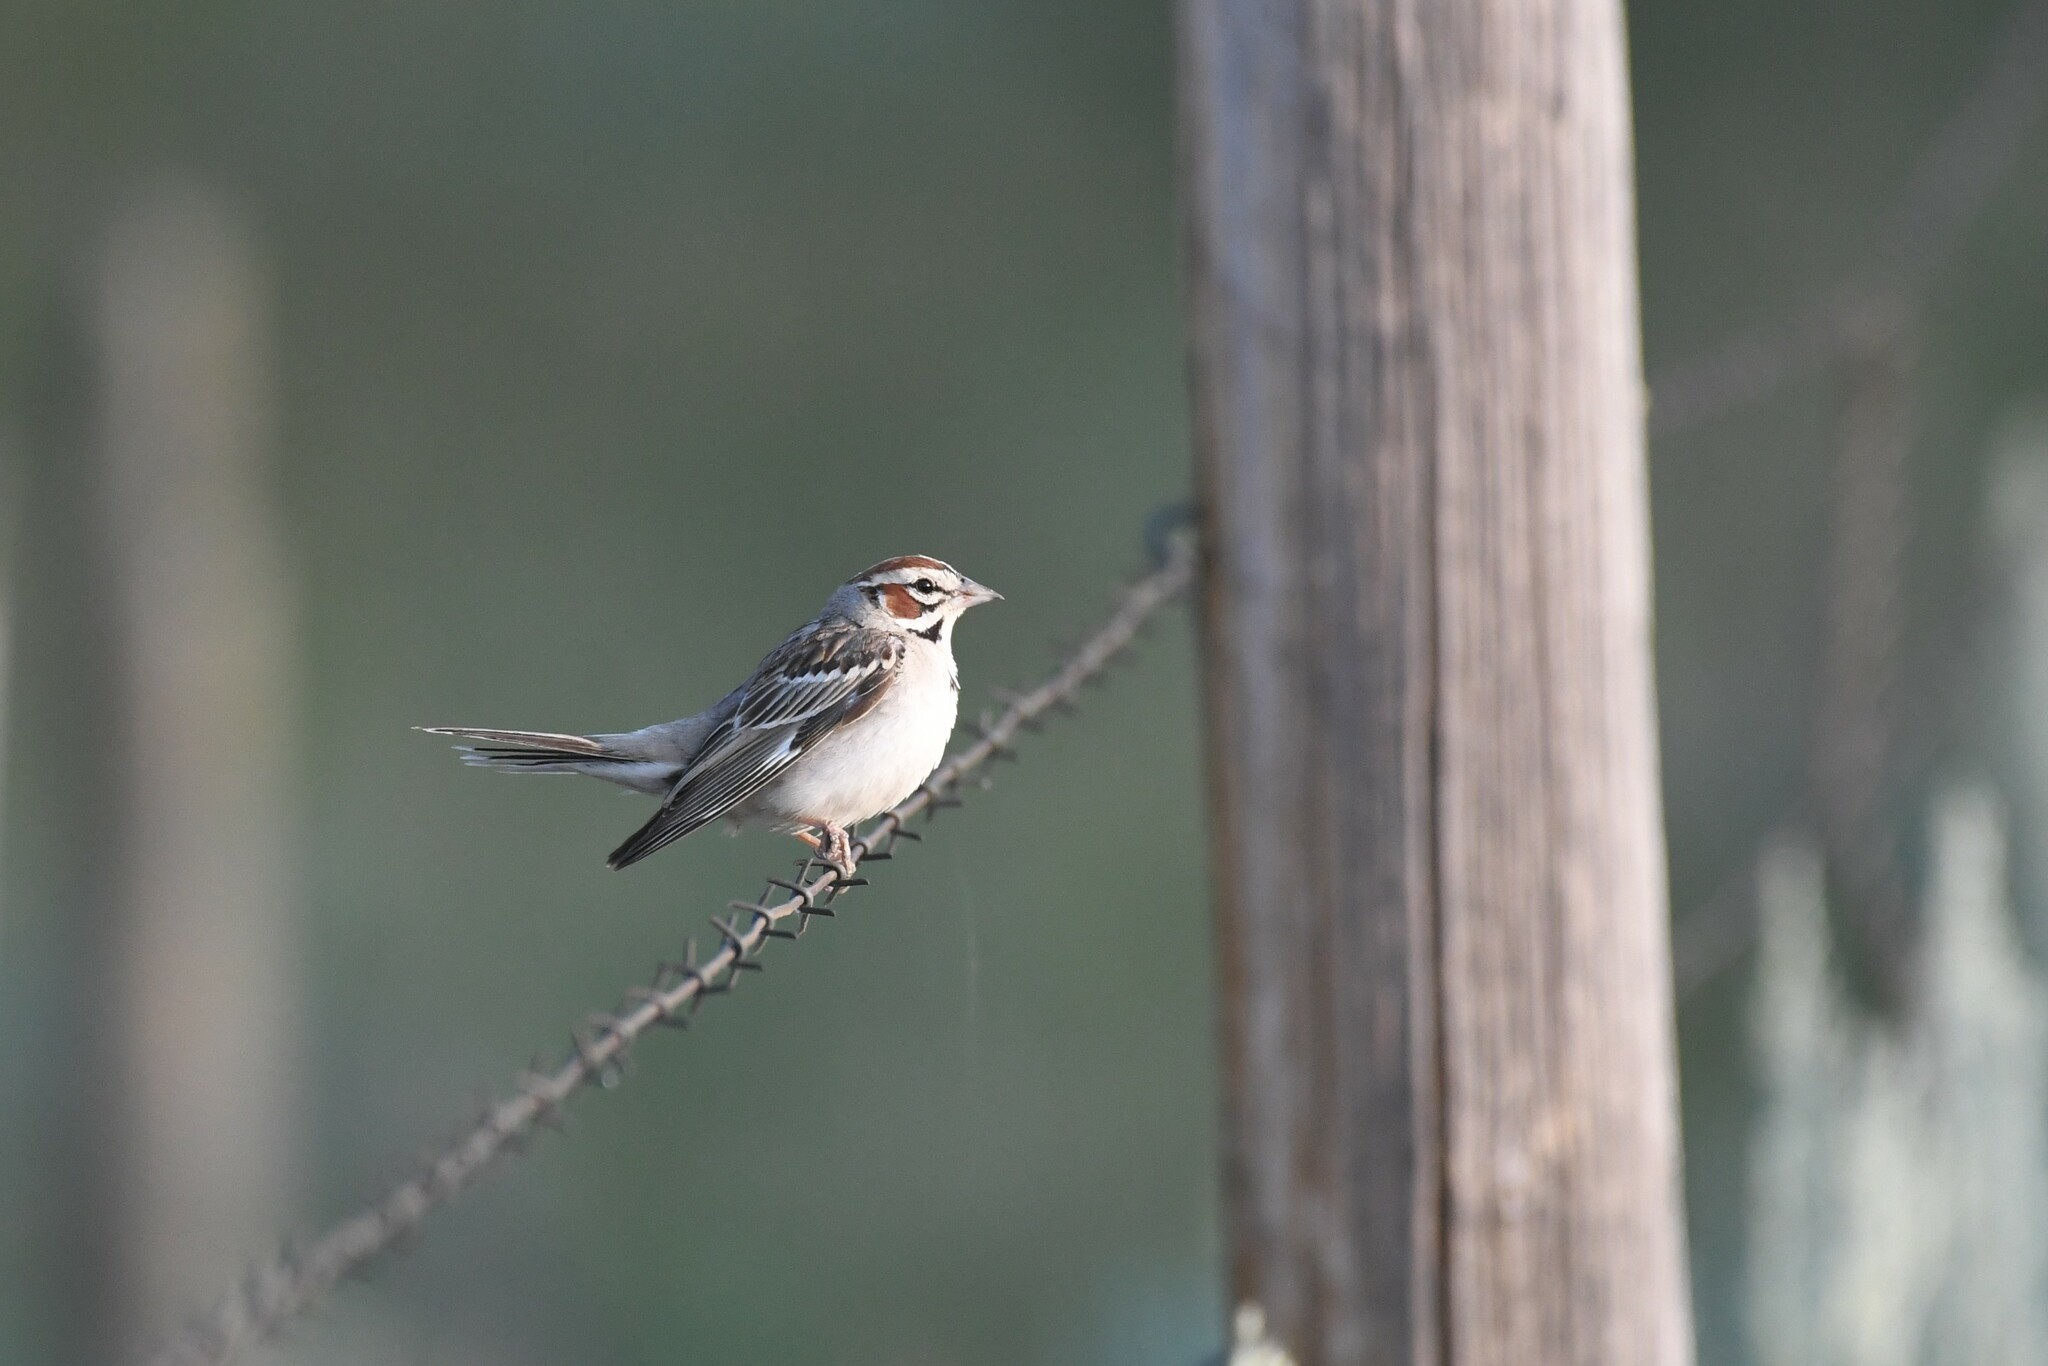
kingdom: Animalia
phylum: Chordata
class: Aves
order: Passeriformes
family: Passerellidae
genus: Chondestes
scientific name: Chondestes grammacus
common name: Lark sparrow
